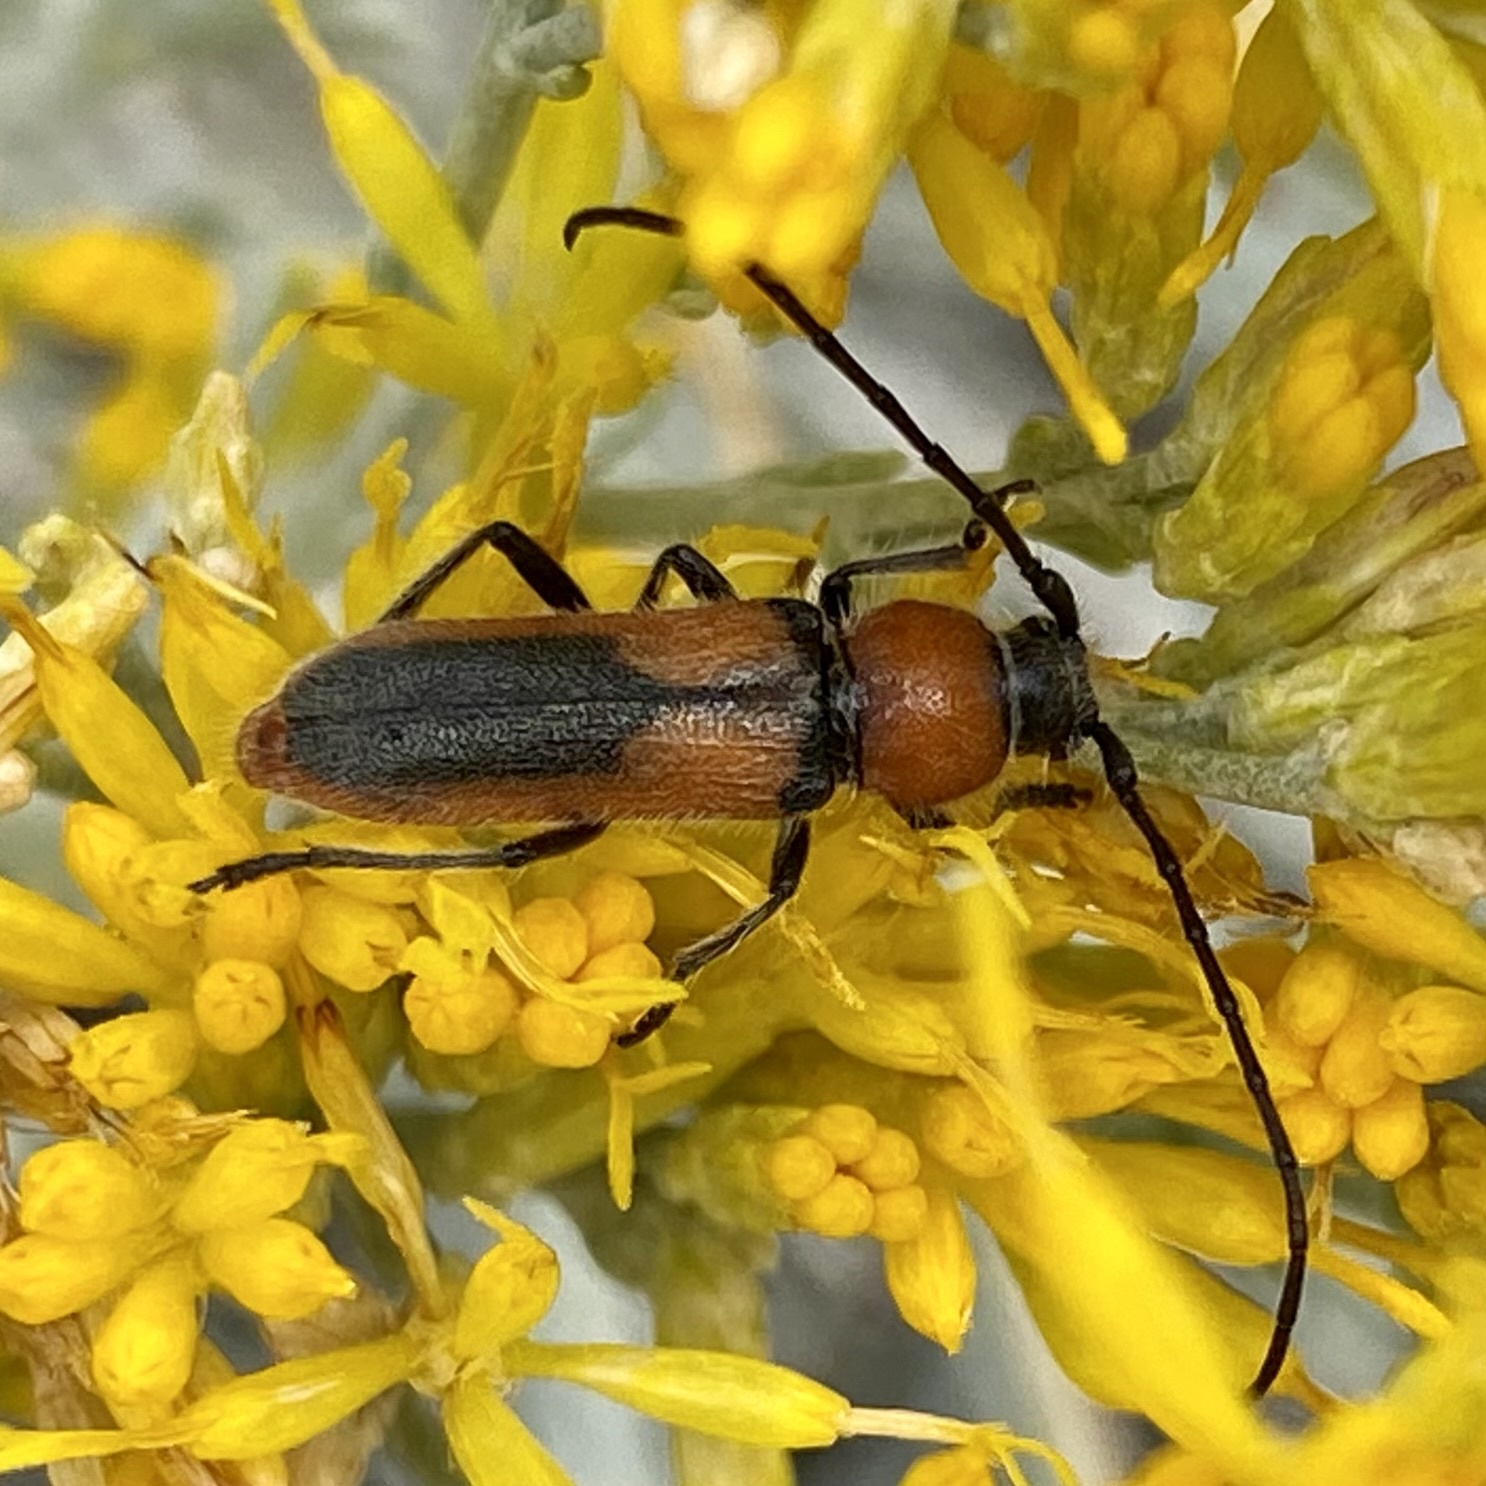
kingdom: Animalia
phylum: Arthropoda
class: Insecta
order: Coleoptera
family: Cerambycidae
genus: Crossidius
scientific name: Crossidius discoideus
